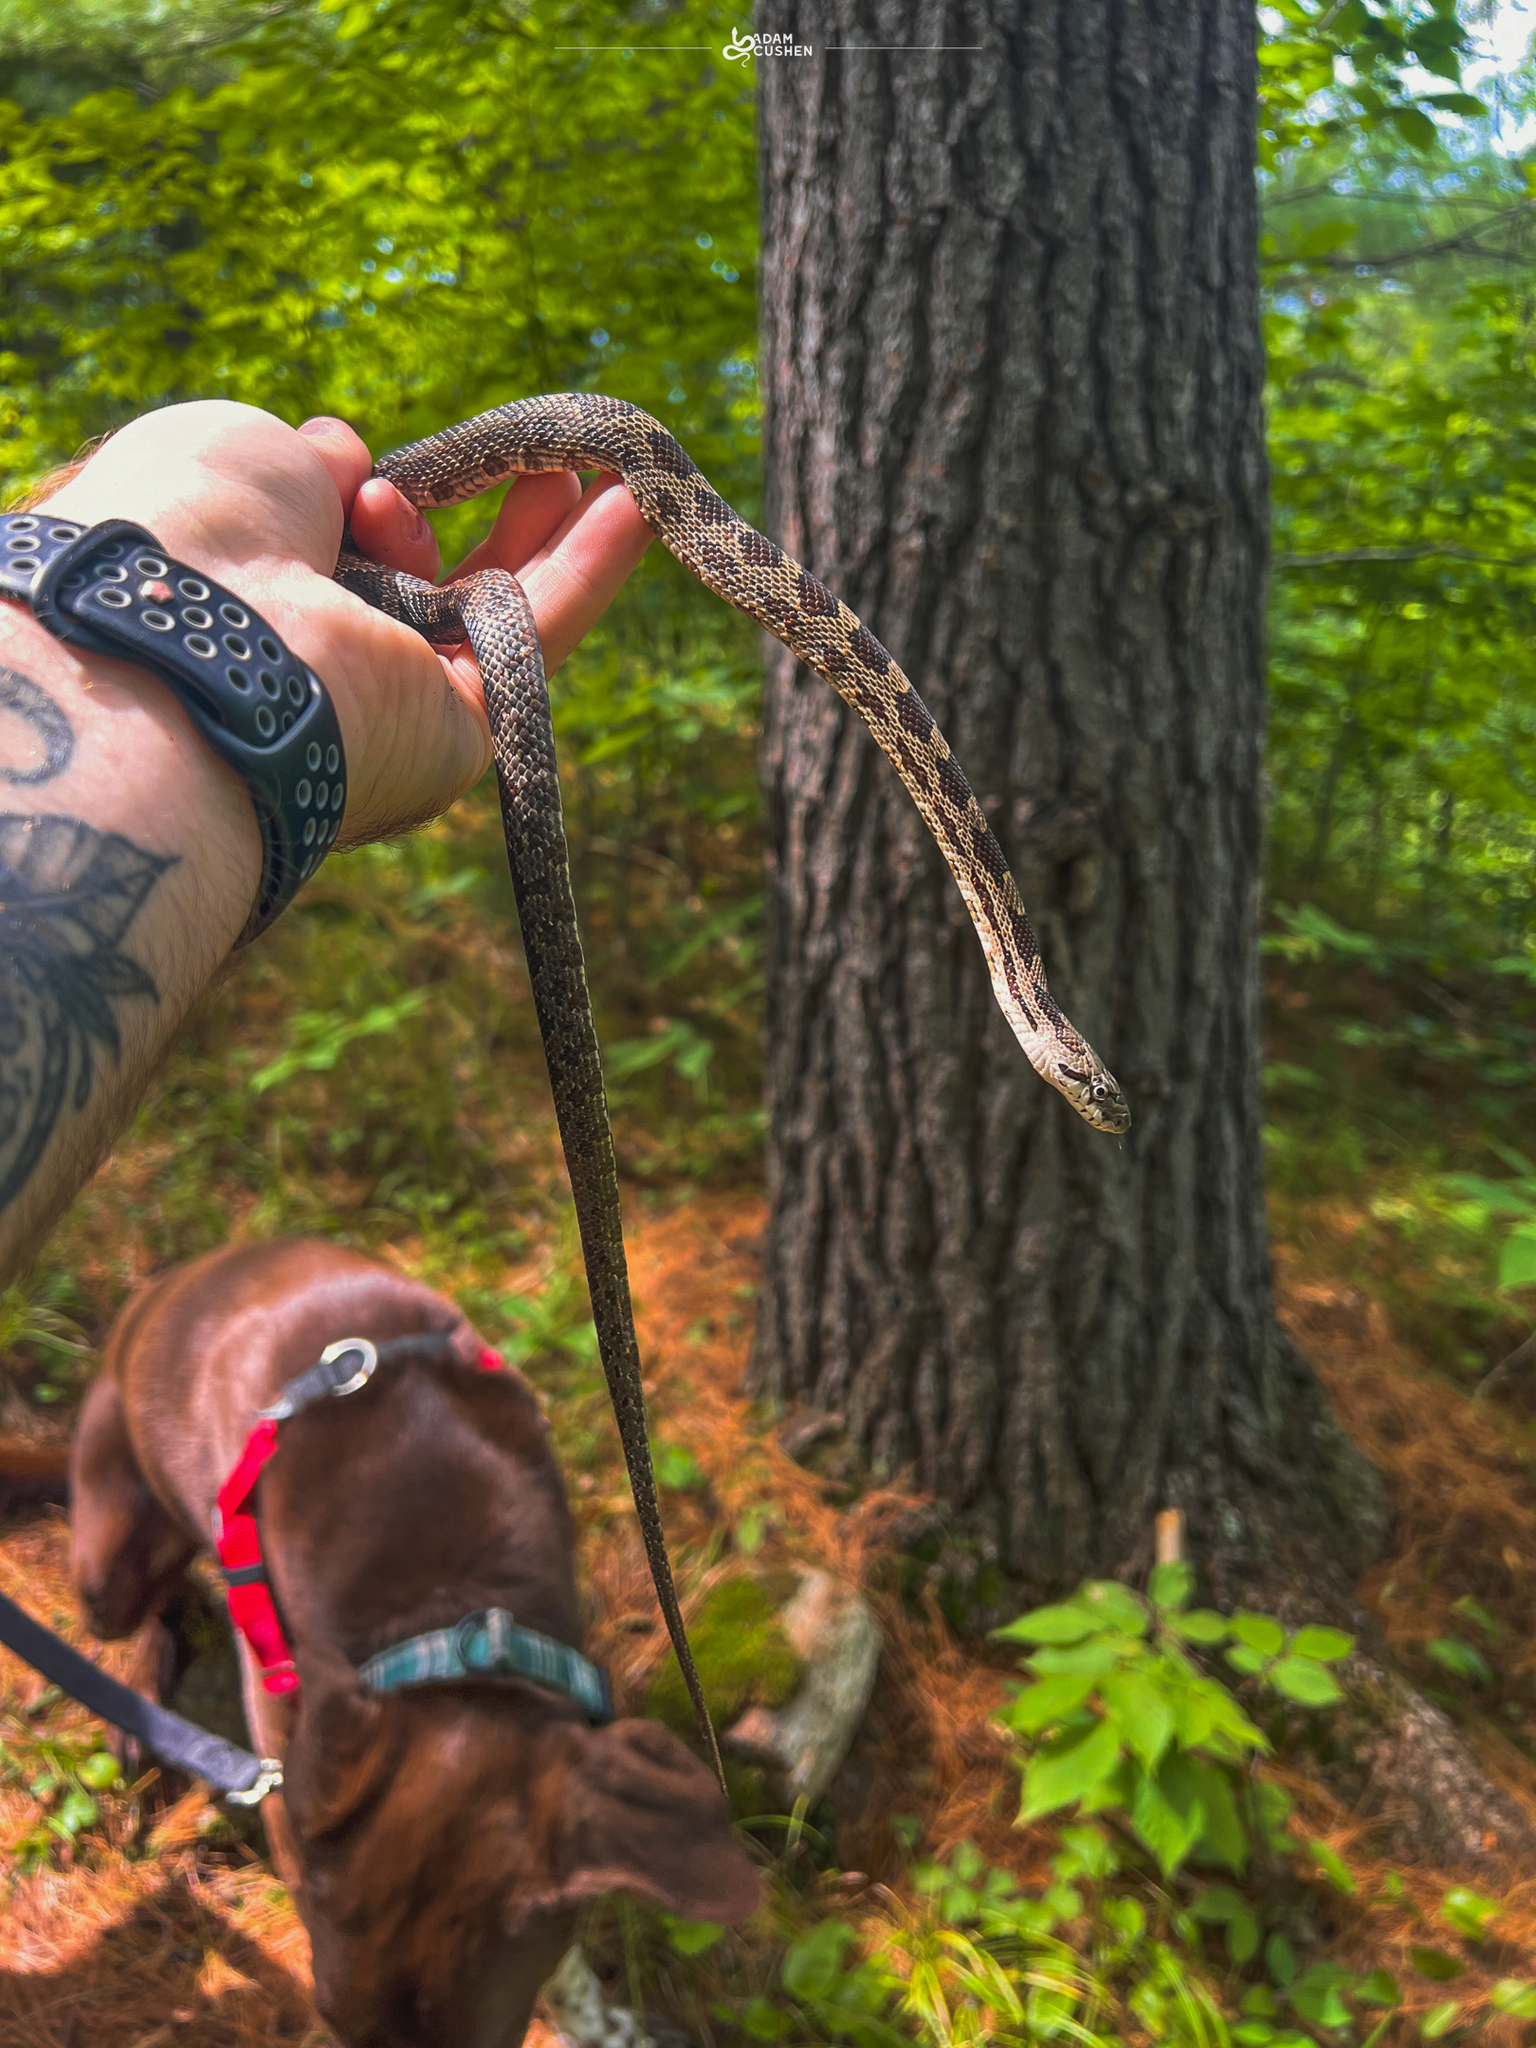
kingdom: Animalia
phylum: Chordata
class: Squamata
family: Colubridae
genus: Pantherophis
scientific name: Pantherophis spiloides
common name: Gray rat snake
